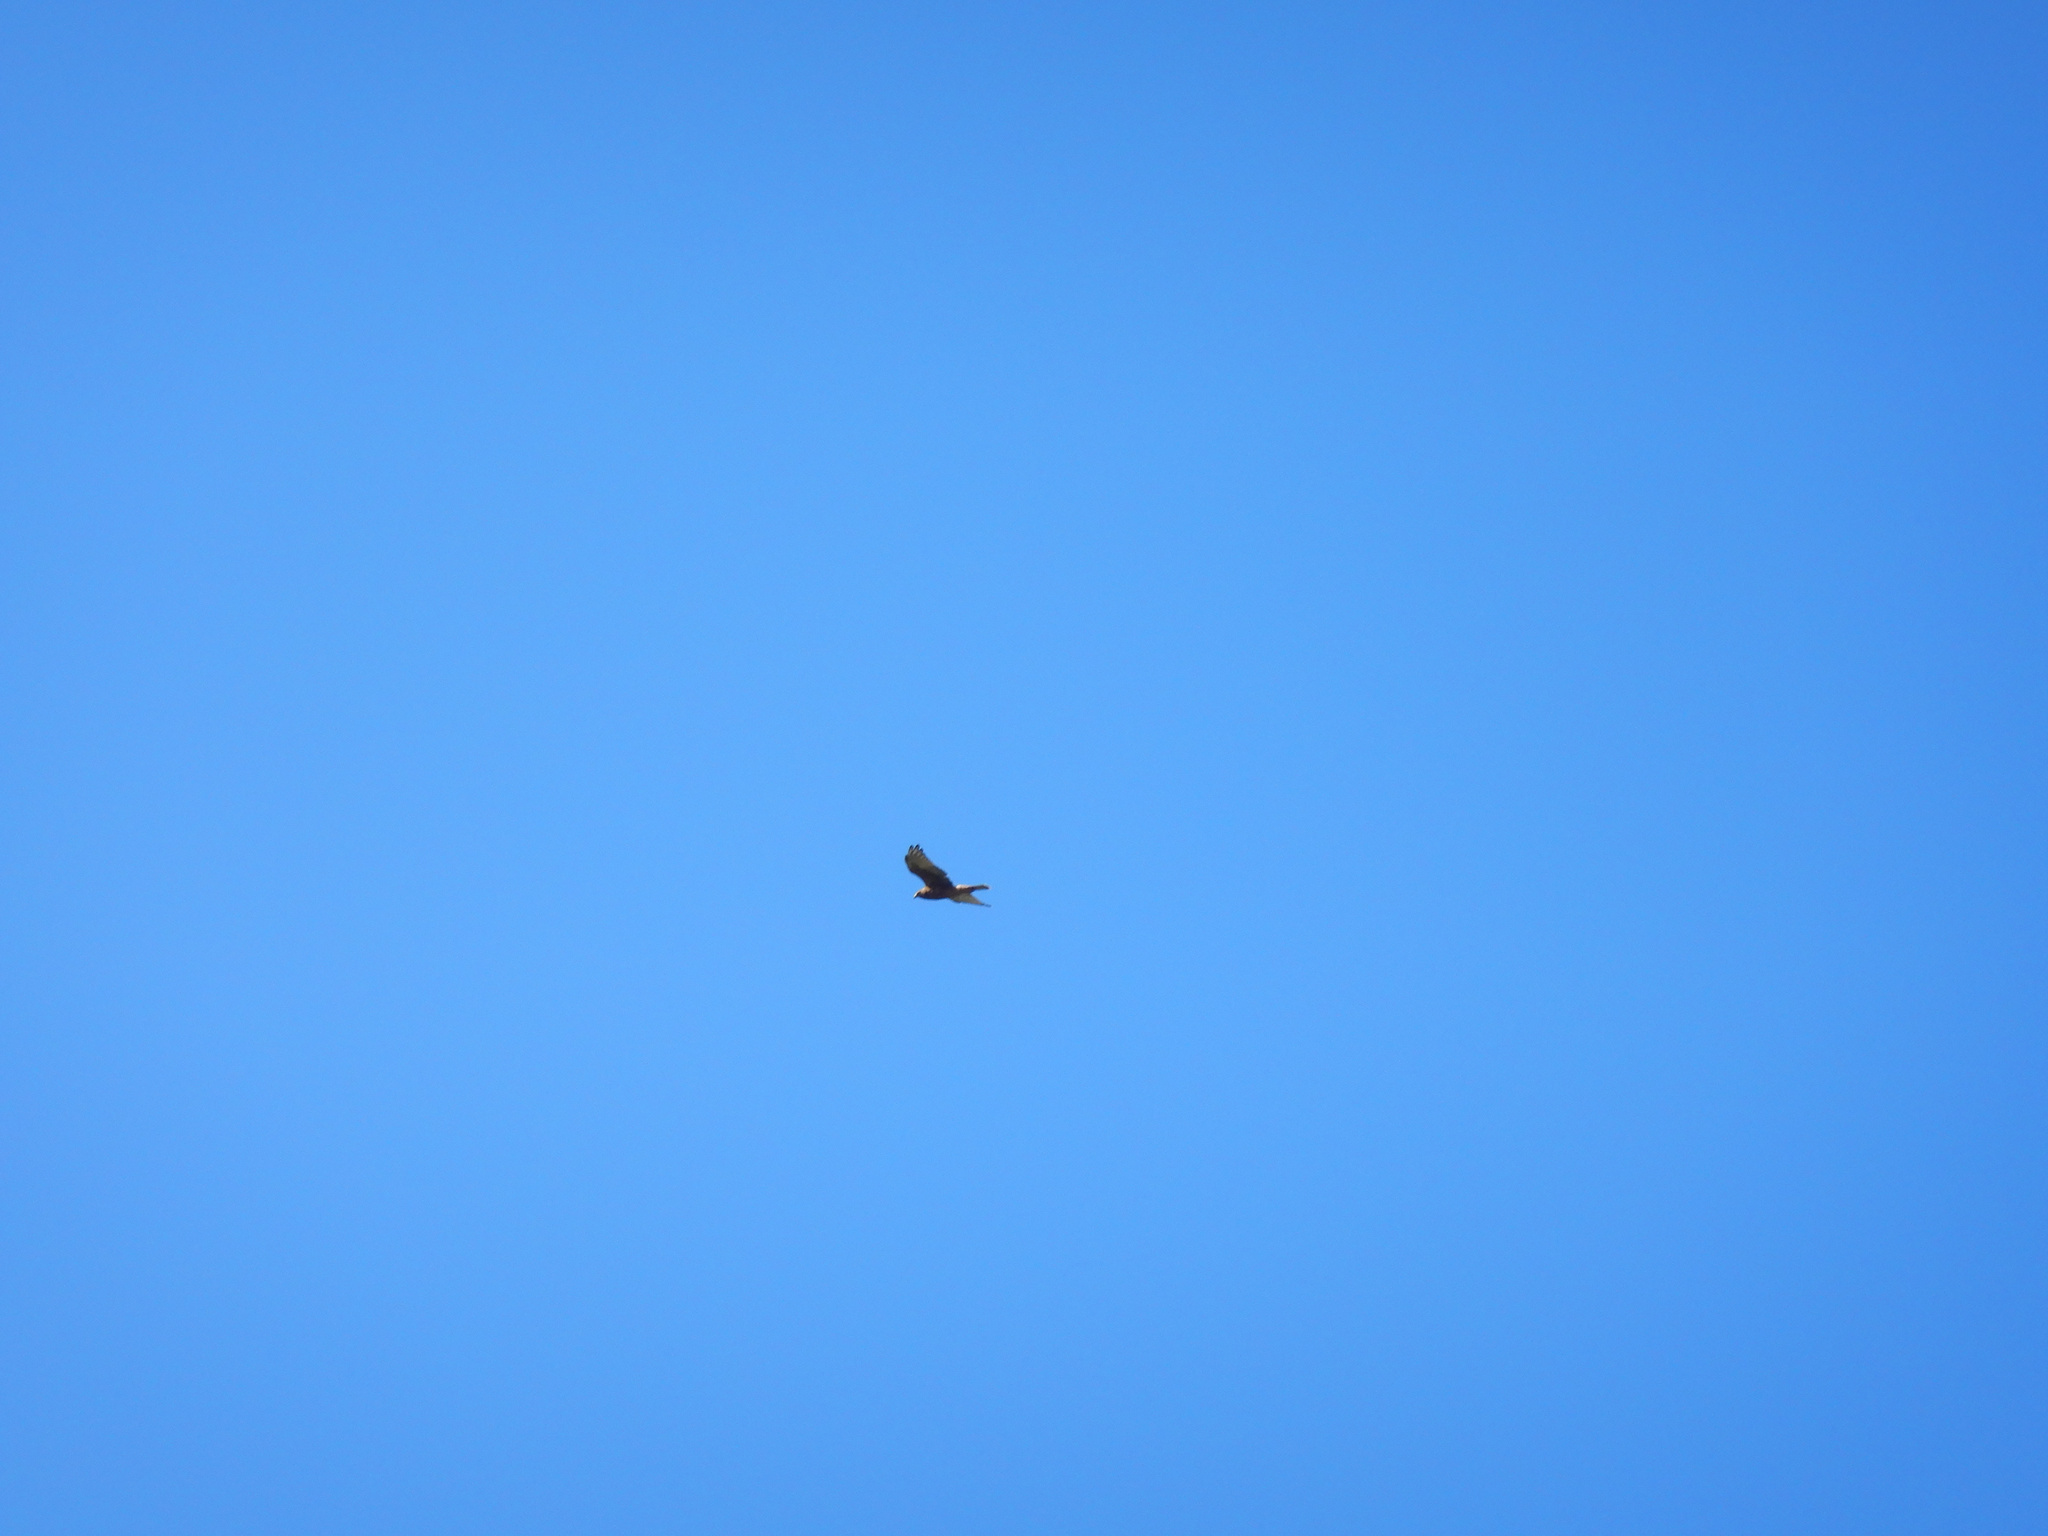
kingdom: Animalia
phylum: Chordata
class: Aves
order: Accipitriformes
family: Accipitridae
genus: Circus
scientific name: Circus approximans
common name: Swamp harrier
